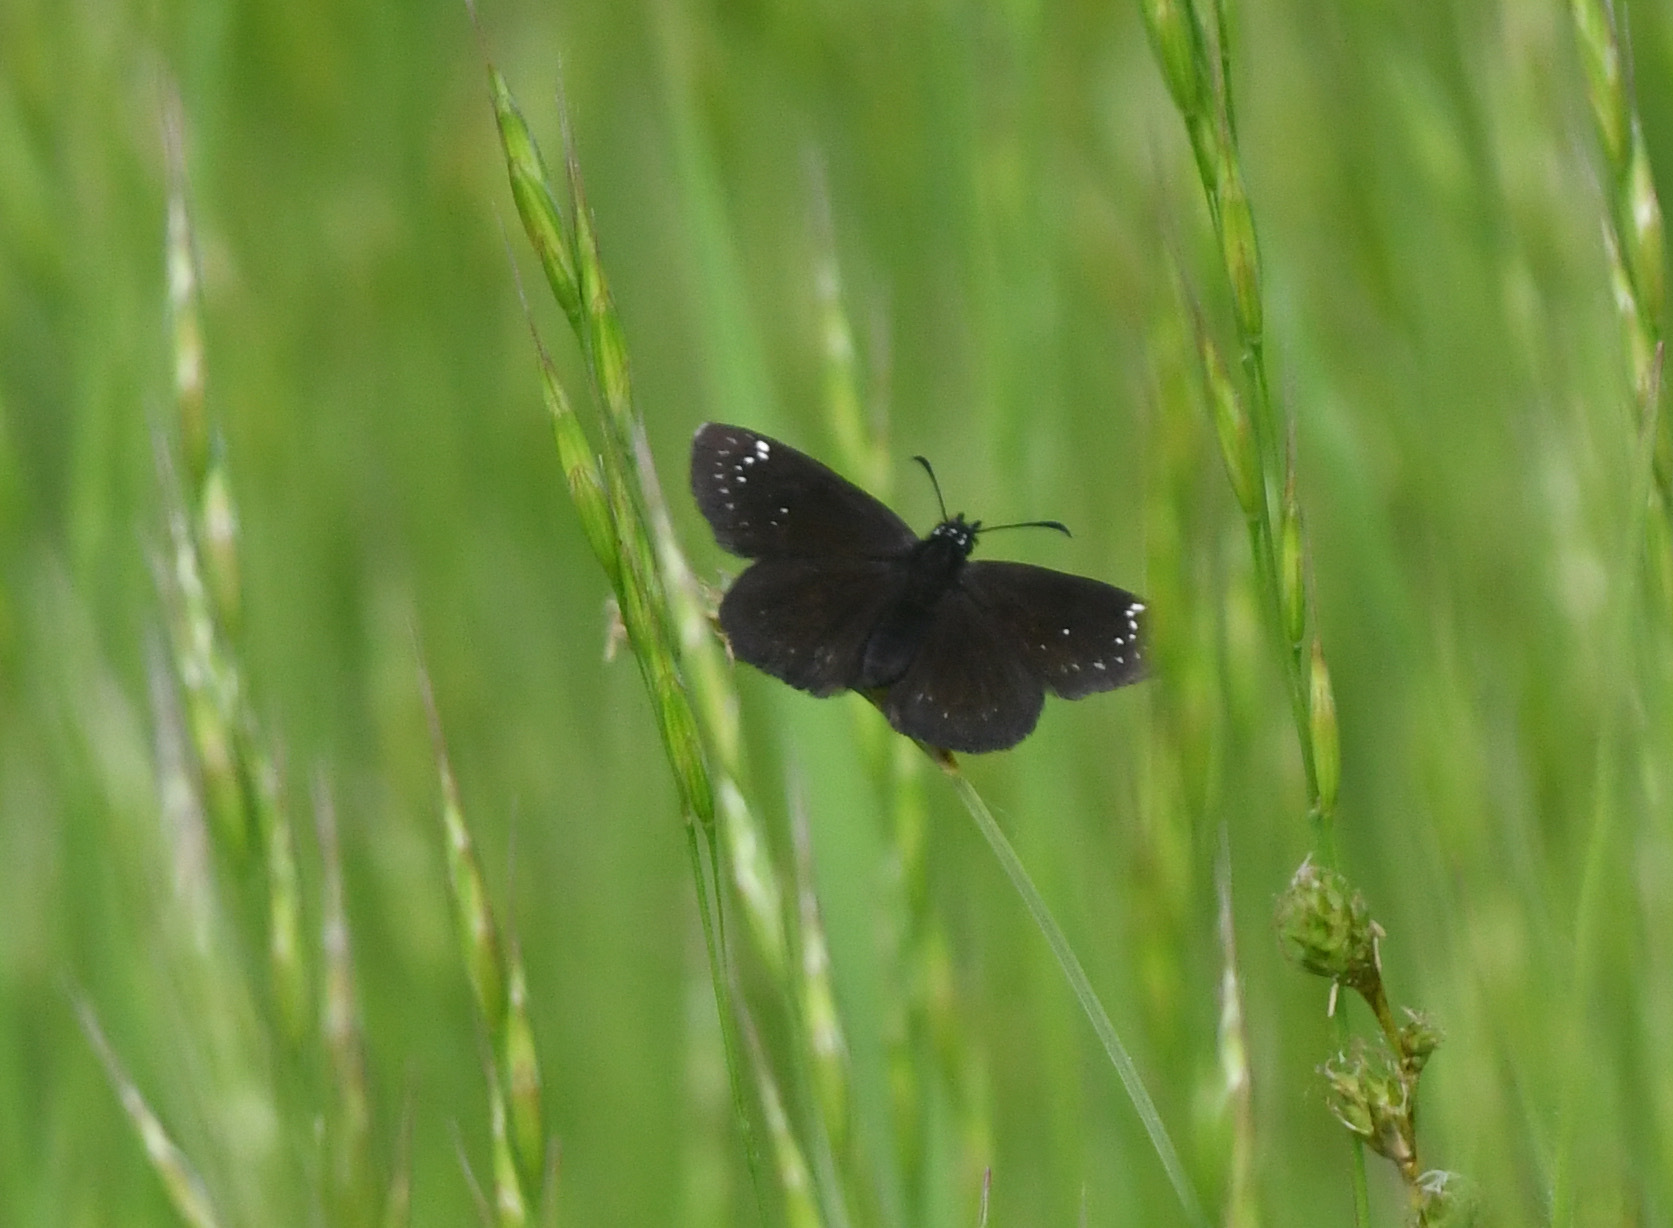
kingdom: Animalia
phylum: Arthropoda
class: Insecta
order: Lepidoptera
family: Hesperiidae
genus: Pholisora
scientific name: Pholisora catullus
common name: Common sootywing
